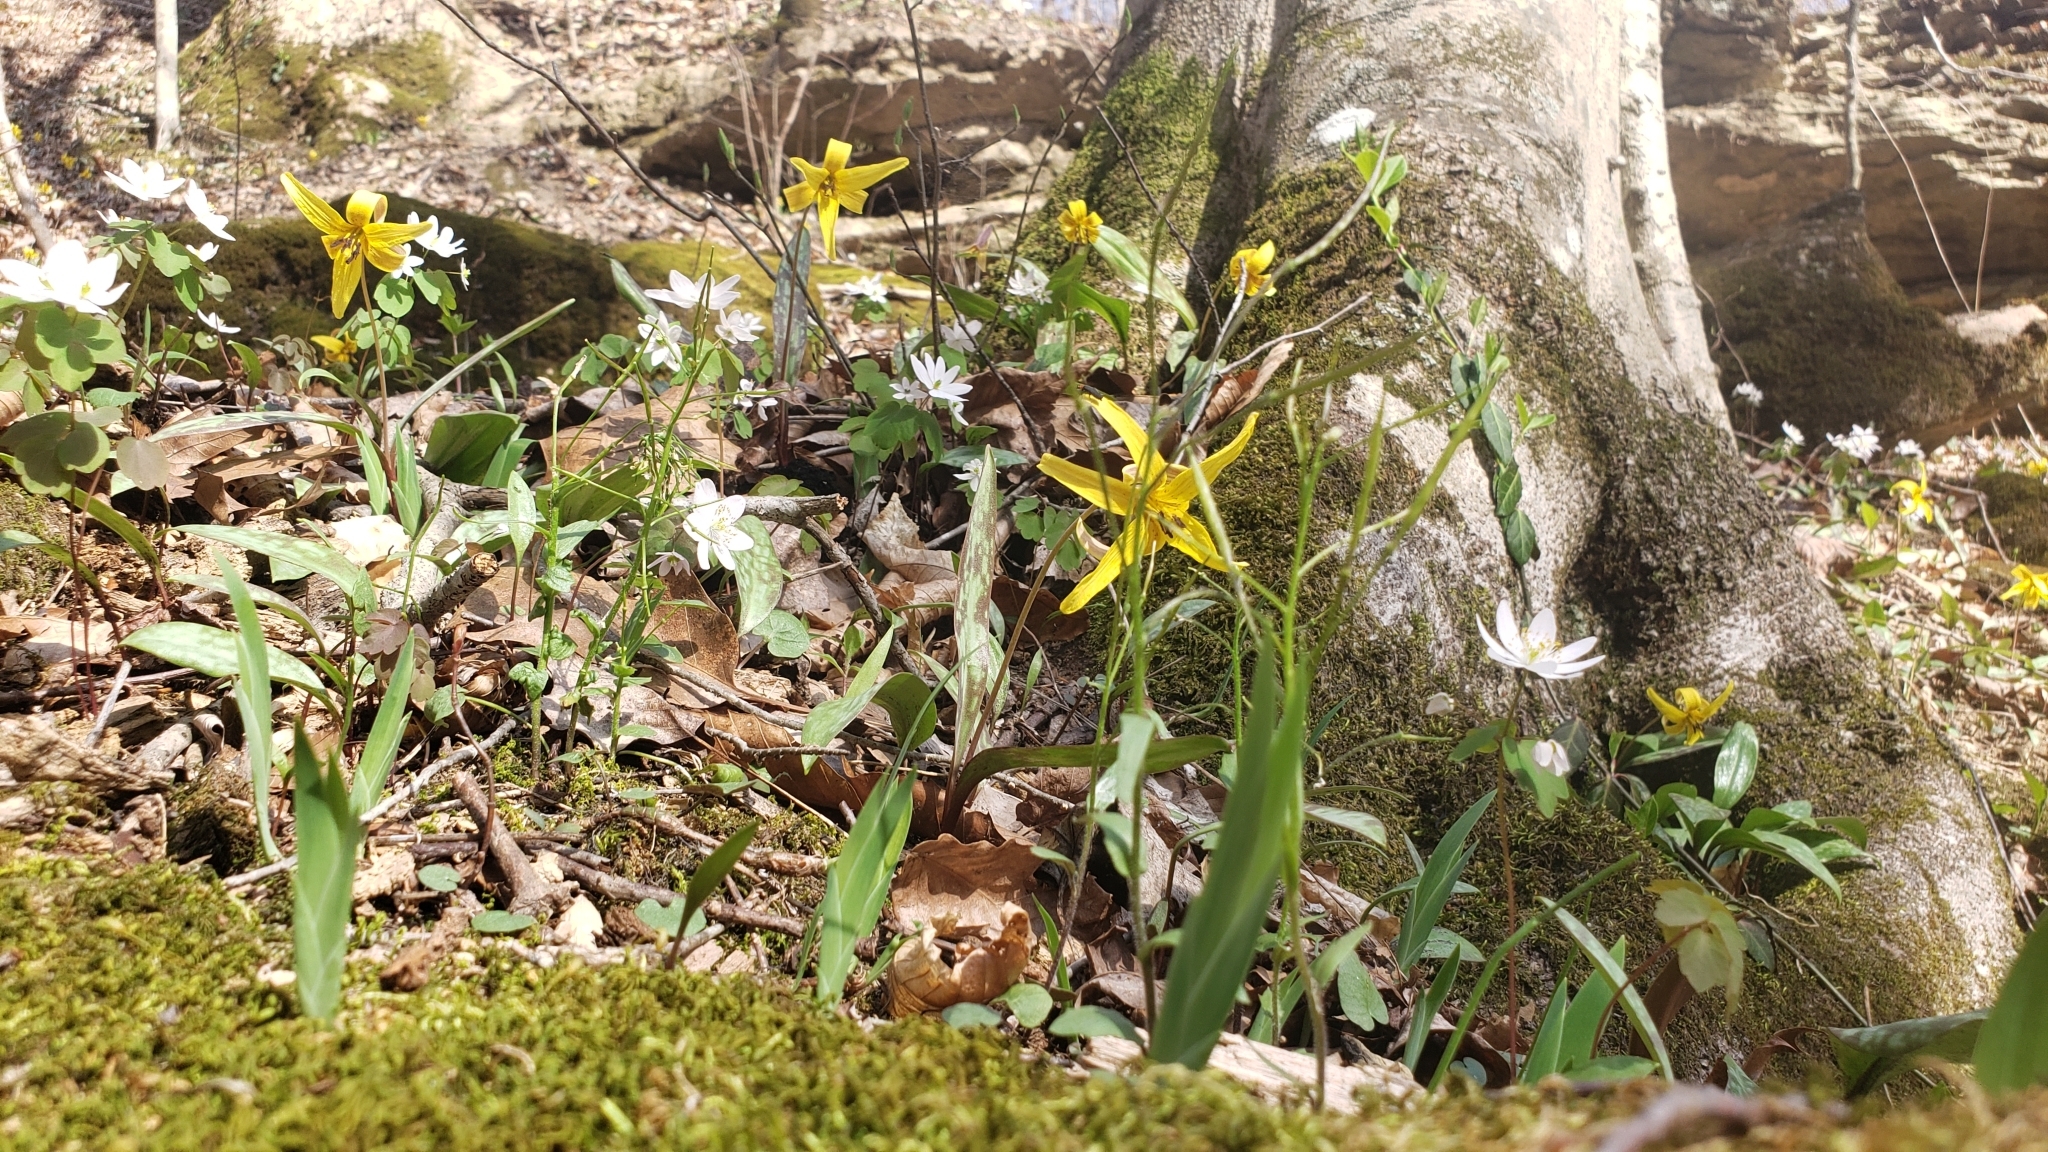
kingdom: Plantae
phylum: Tracheophyta
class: Liliopsida
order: Liliales
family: Liliaceae
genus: Erythronium
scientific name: Erythronium americanum
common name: Yellow adder's-tongue
